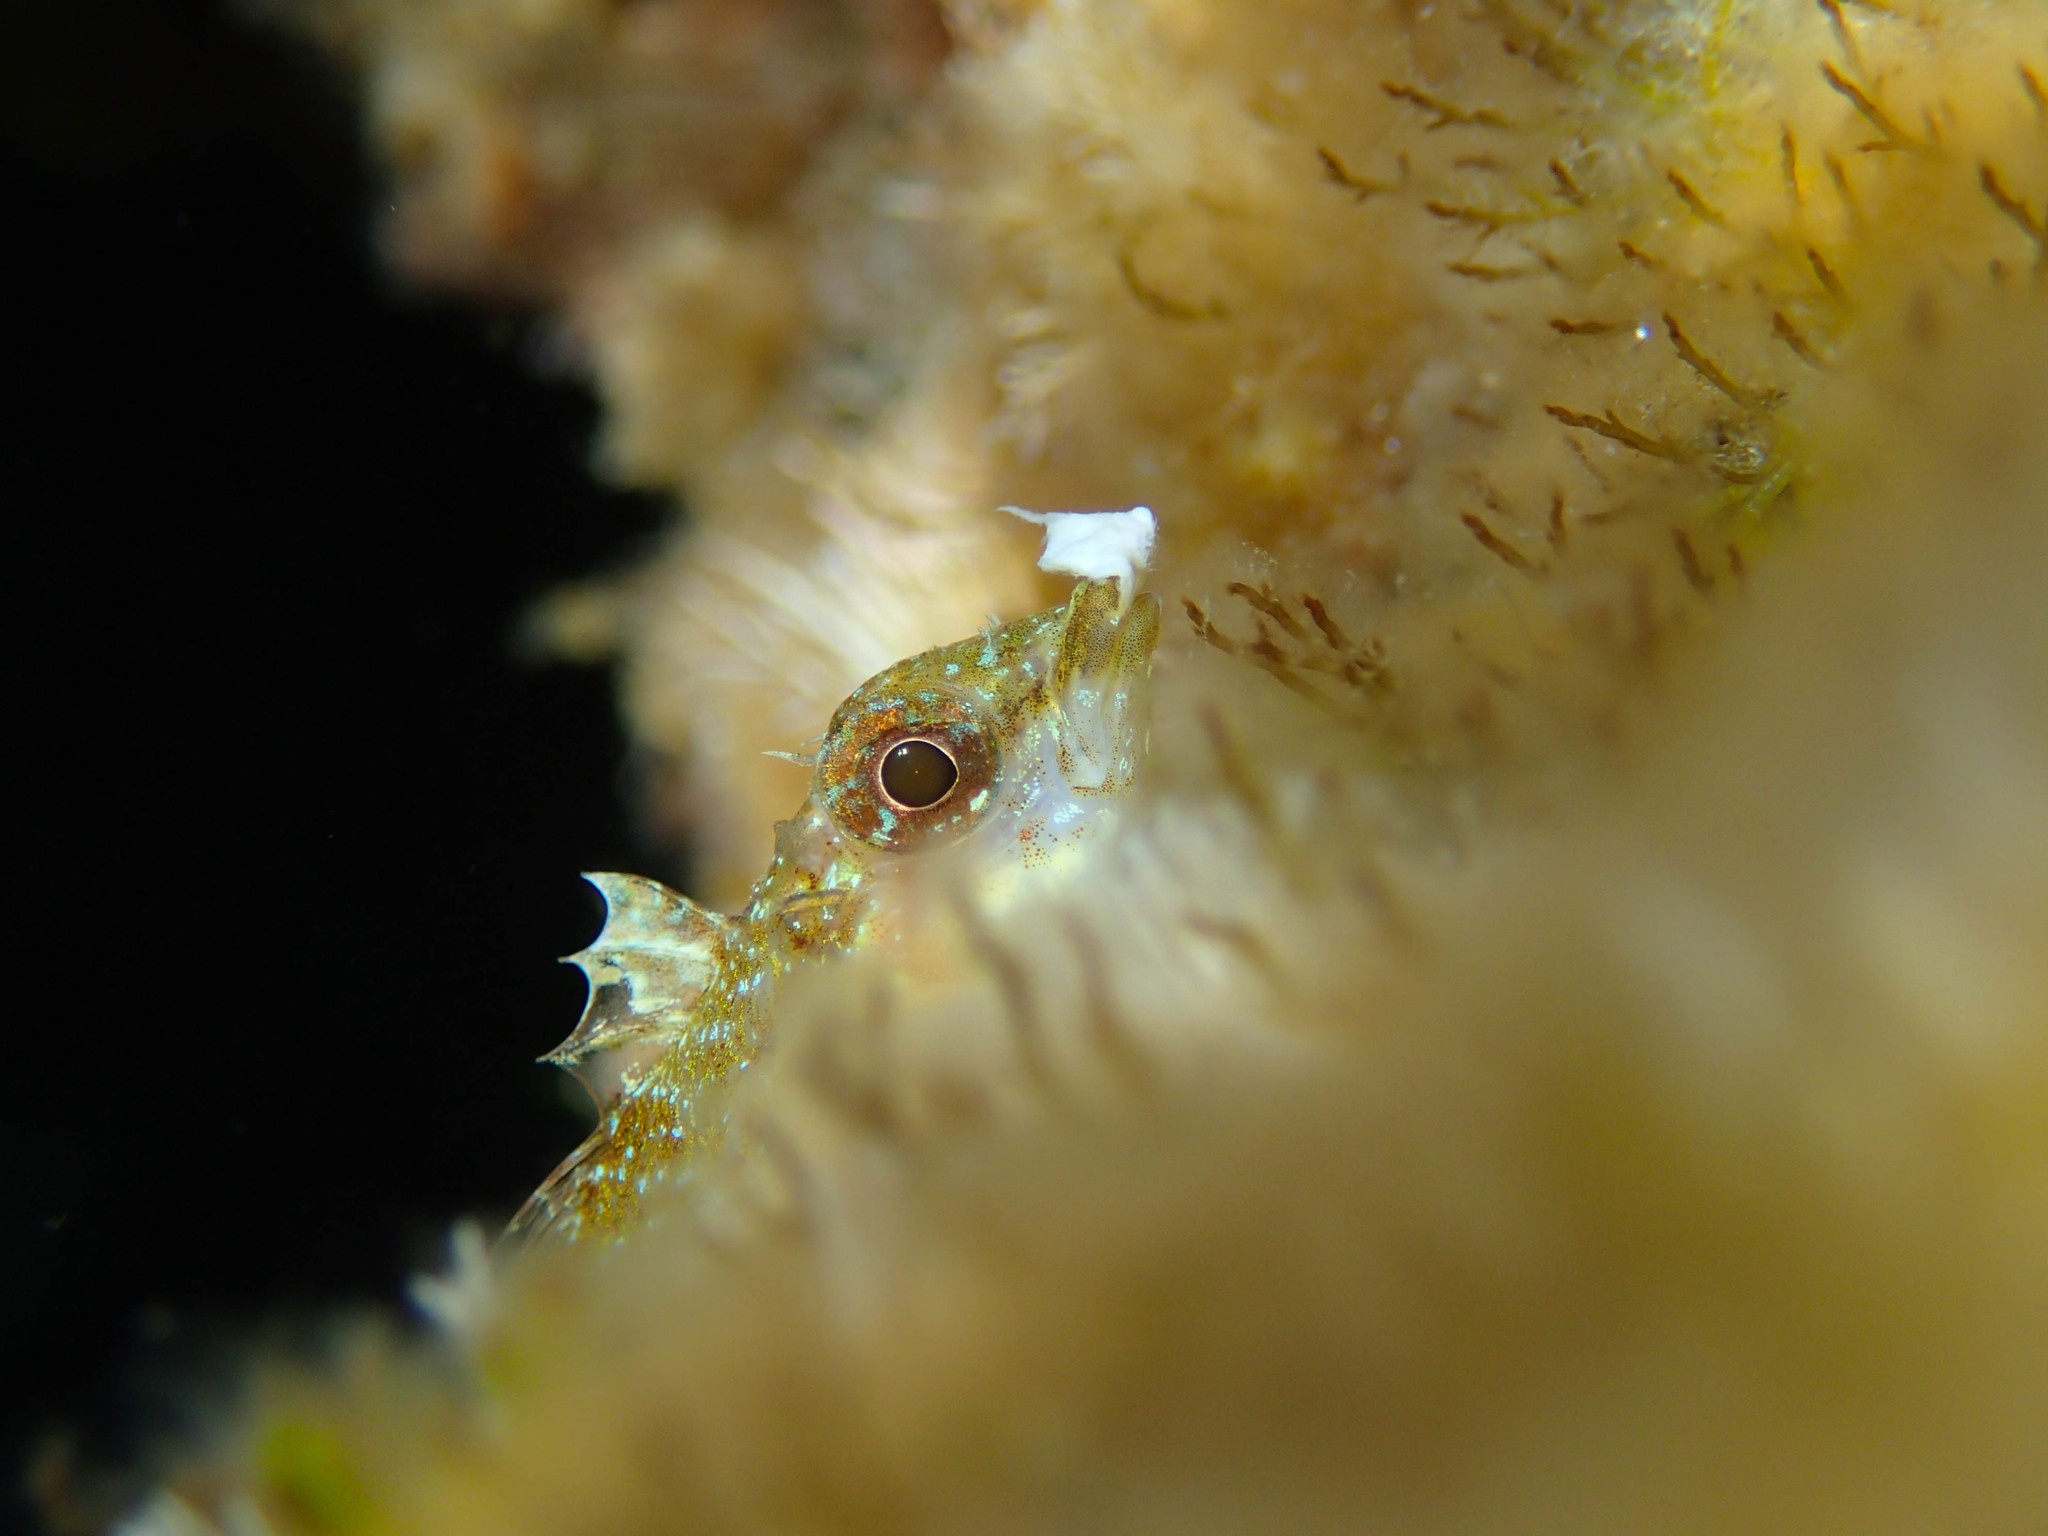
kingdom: Animalia
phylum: Chordata
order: Perciformes
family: Tripterygiidae
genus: Tripterygion
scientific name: Tripterygion tripteronotum
